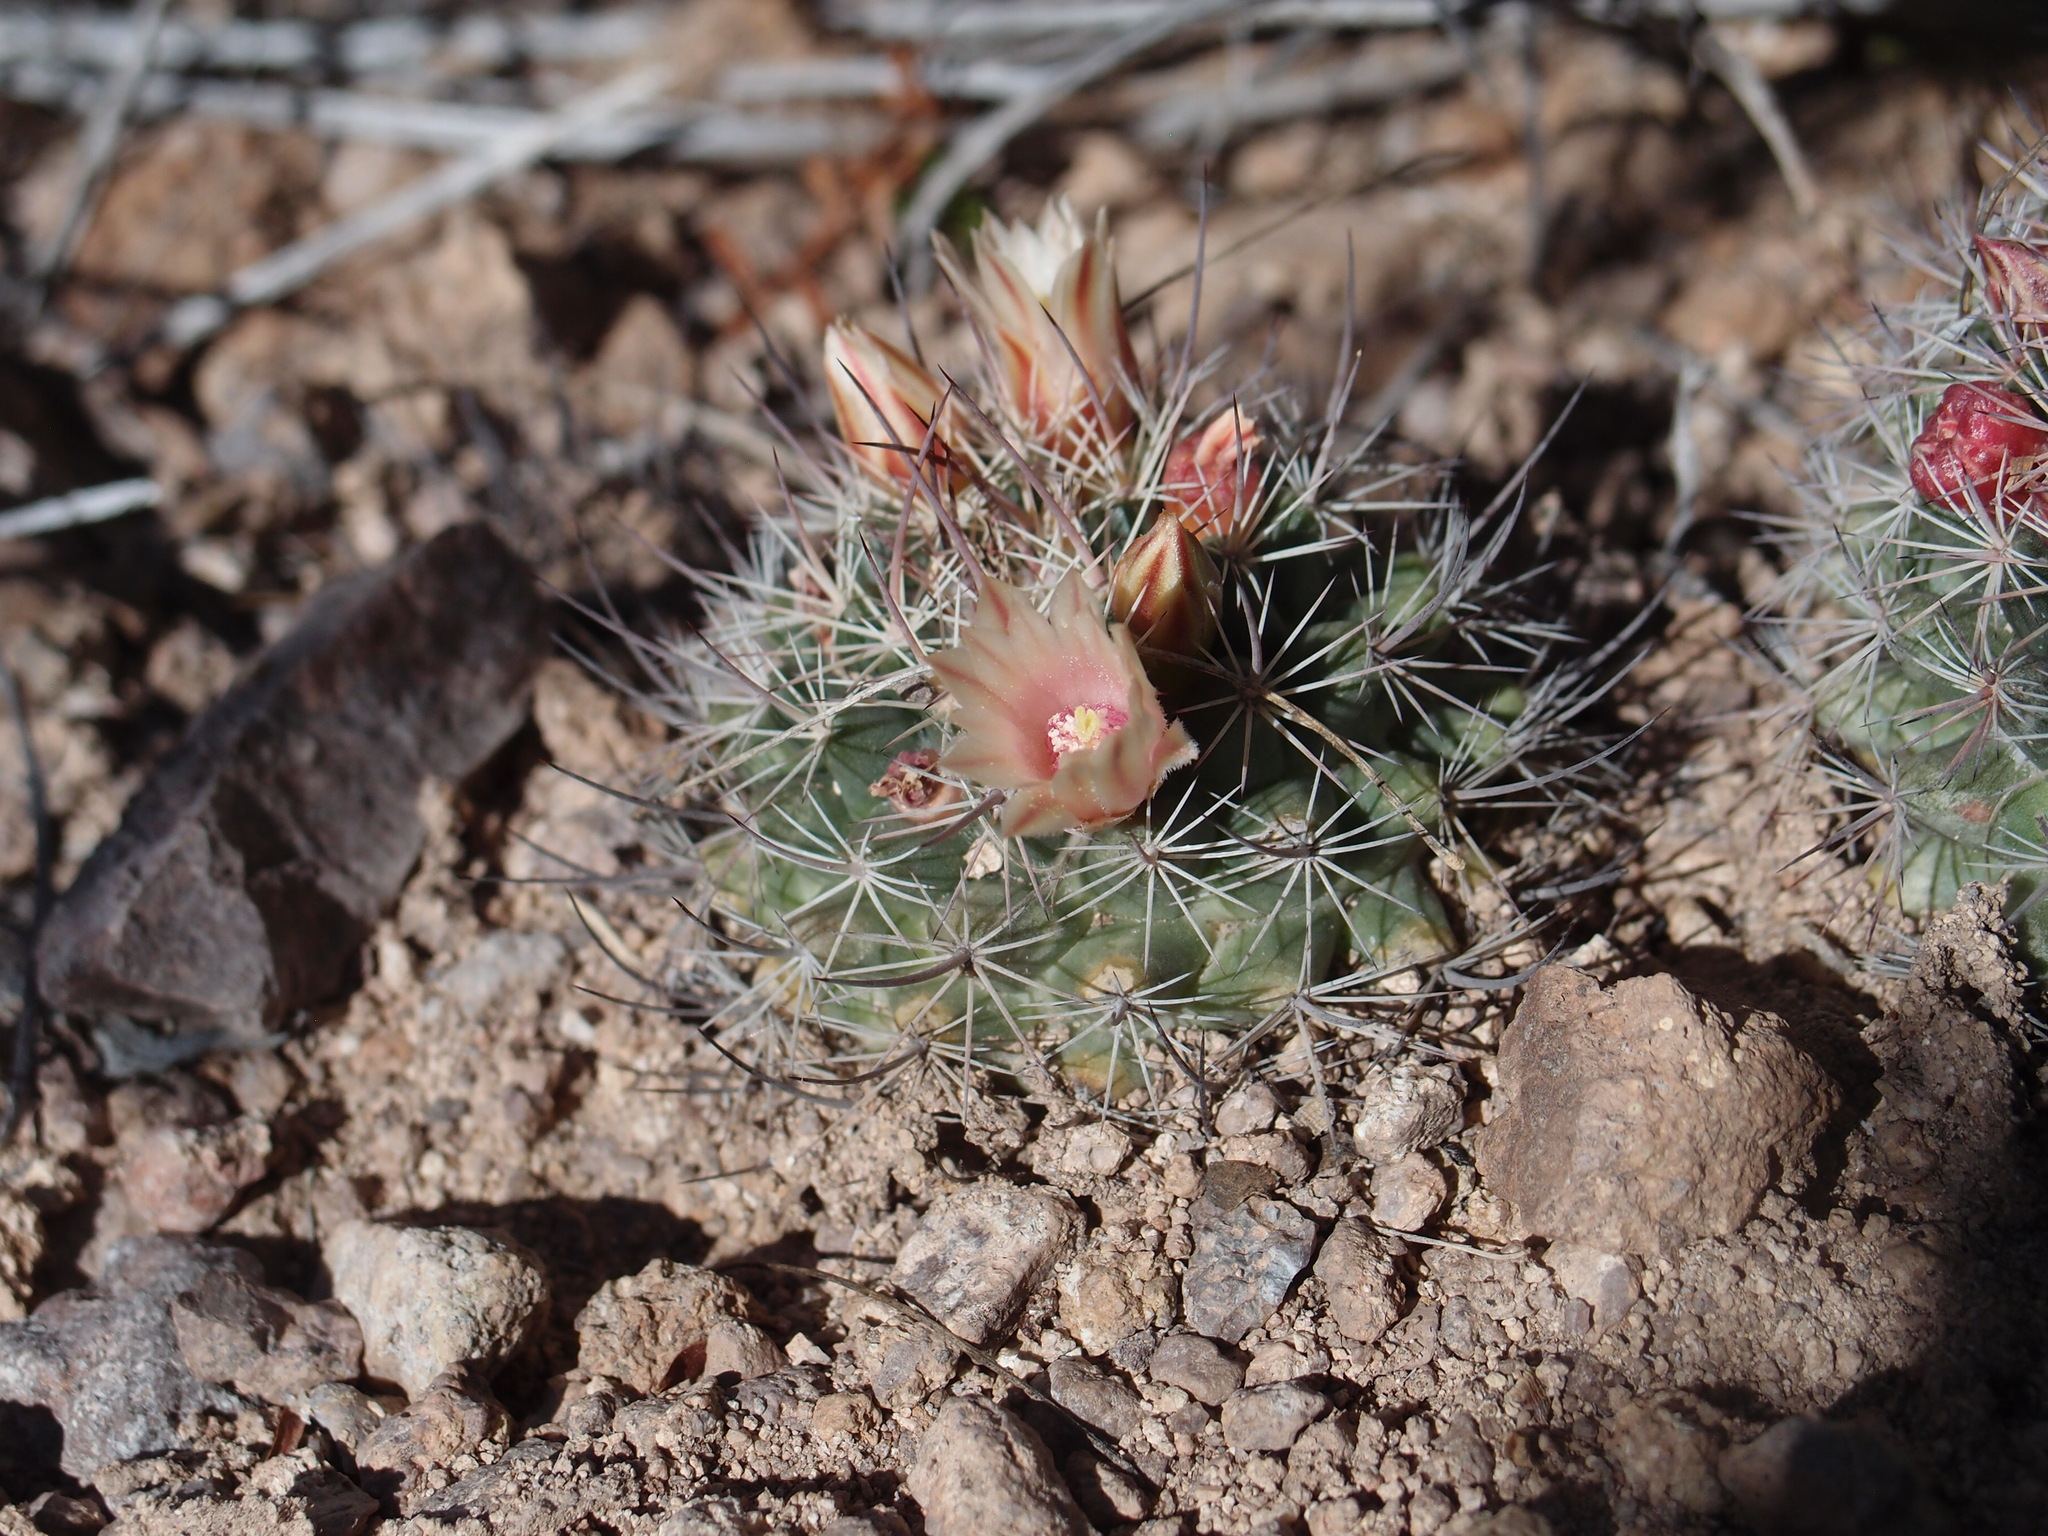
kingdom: Plantae
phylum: Tracheophyta
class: Magnoliopsida
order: Caryophyllales
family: Cactaceae
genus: Mammillaria
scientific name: Mammillaria johnstonii
